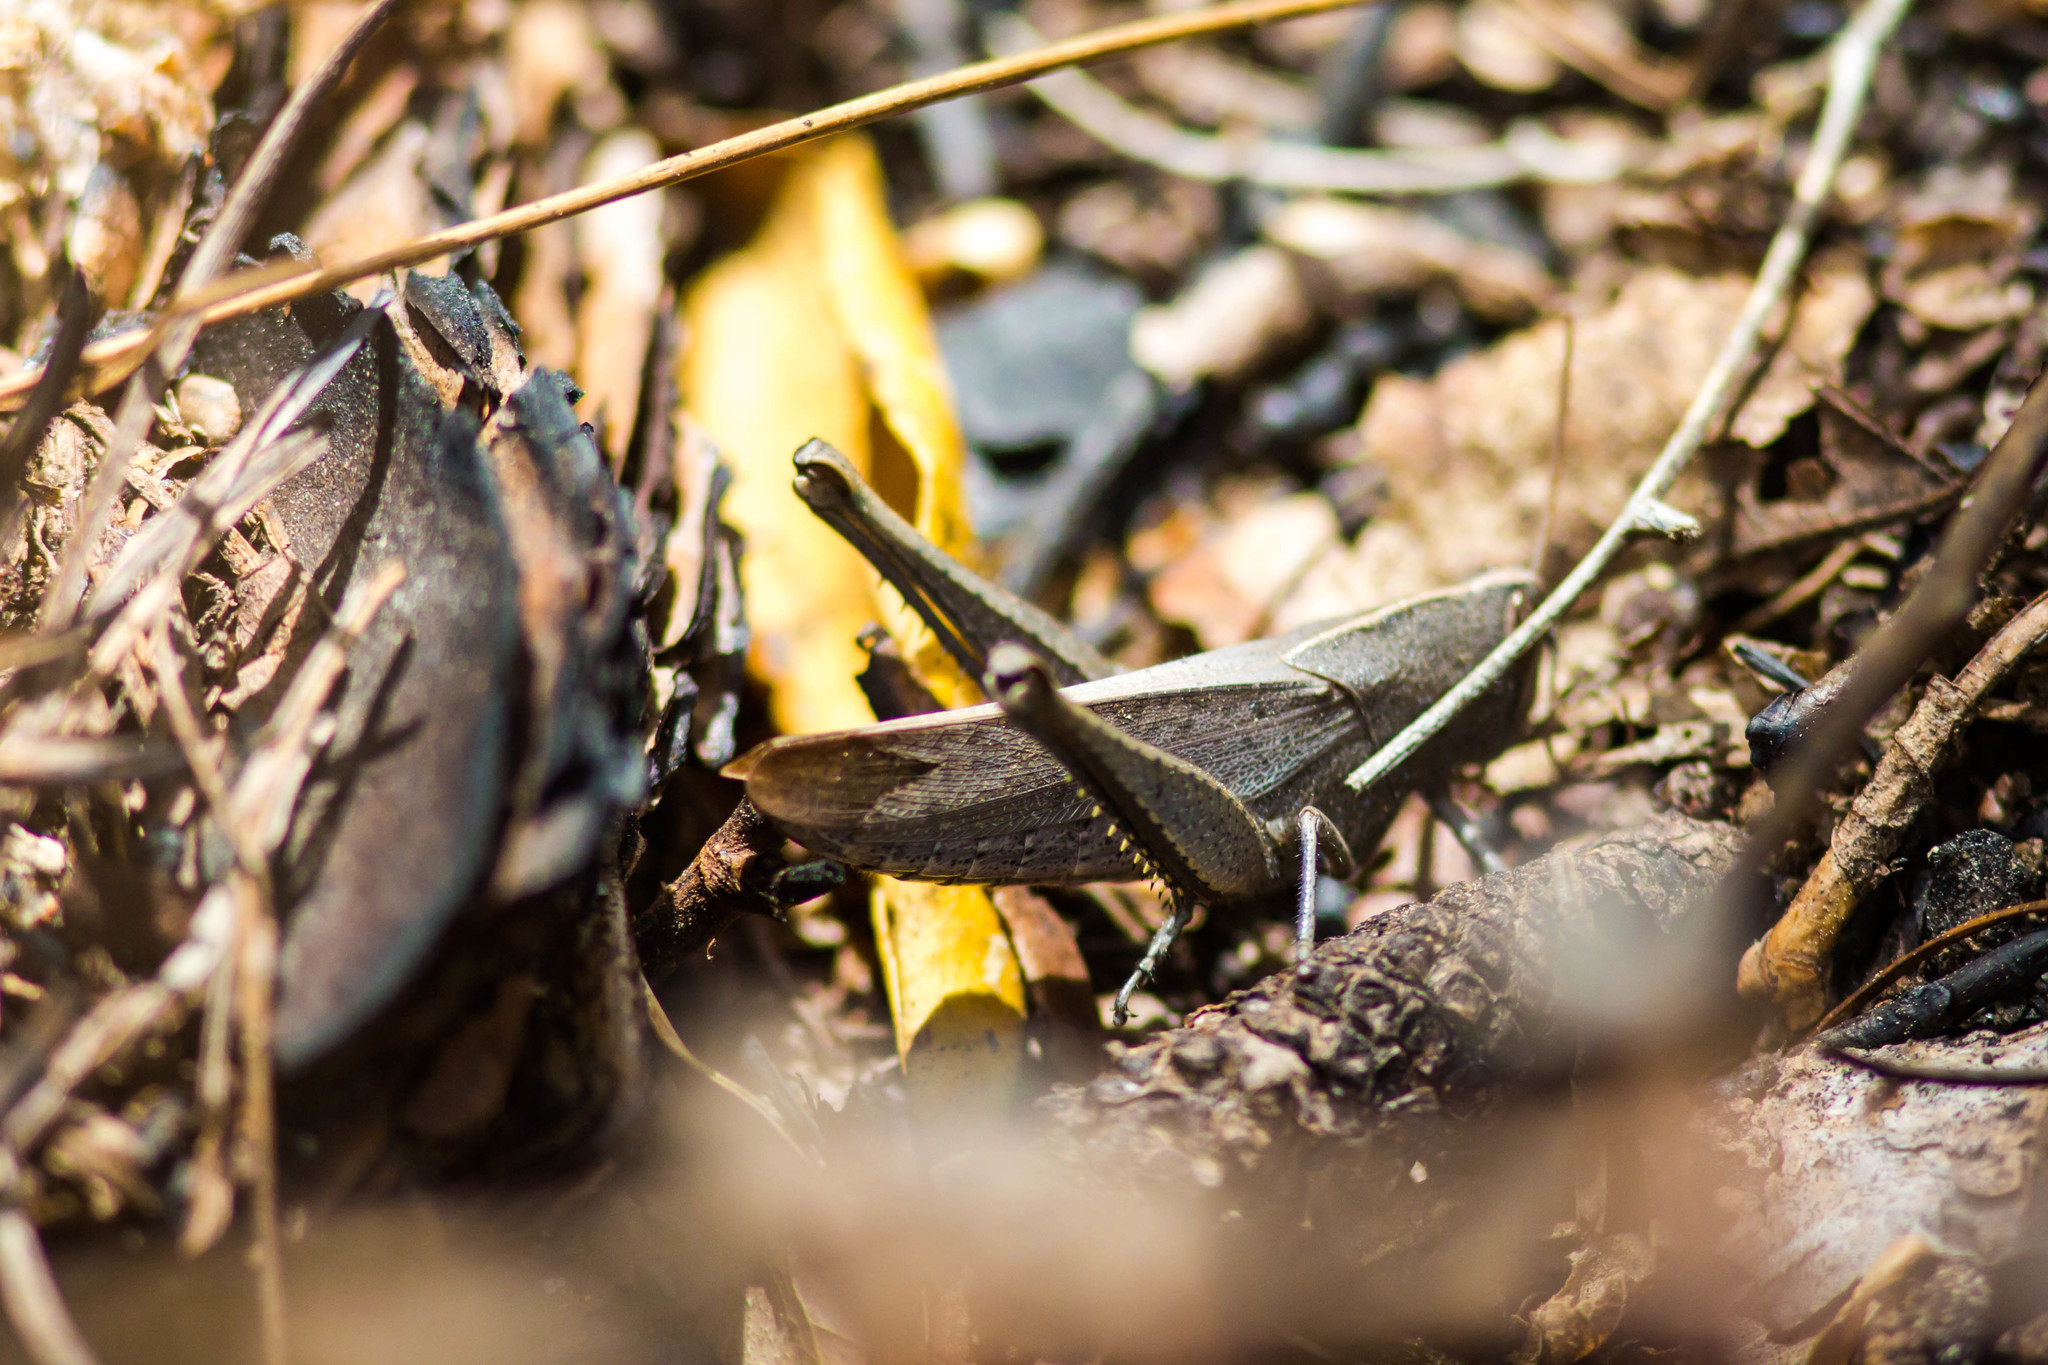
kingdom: Animalia
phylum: Arthropoda
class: Insecta
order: Orthoptera
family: Acrididae
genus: Schistocerca
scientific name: Schistocerca damnifica
